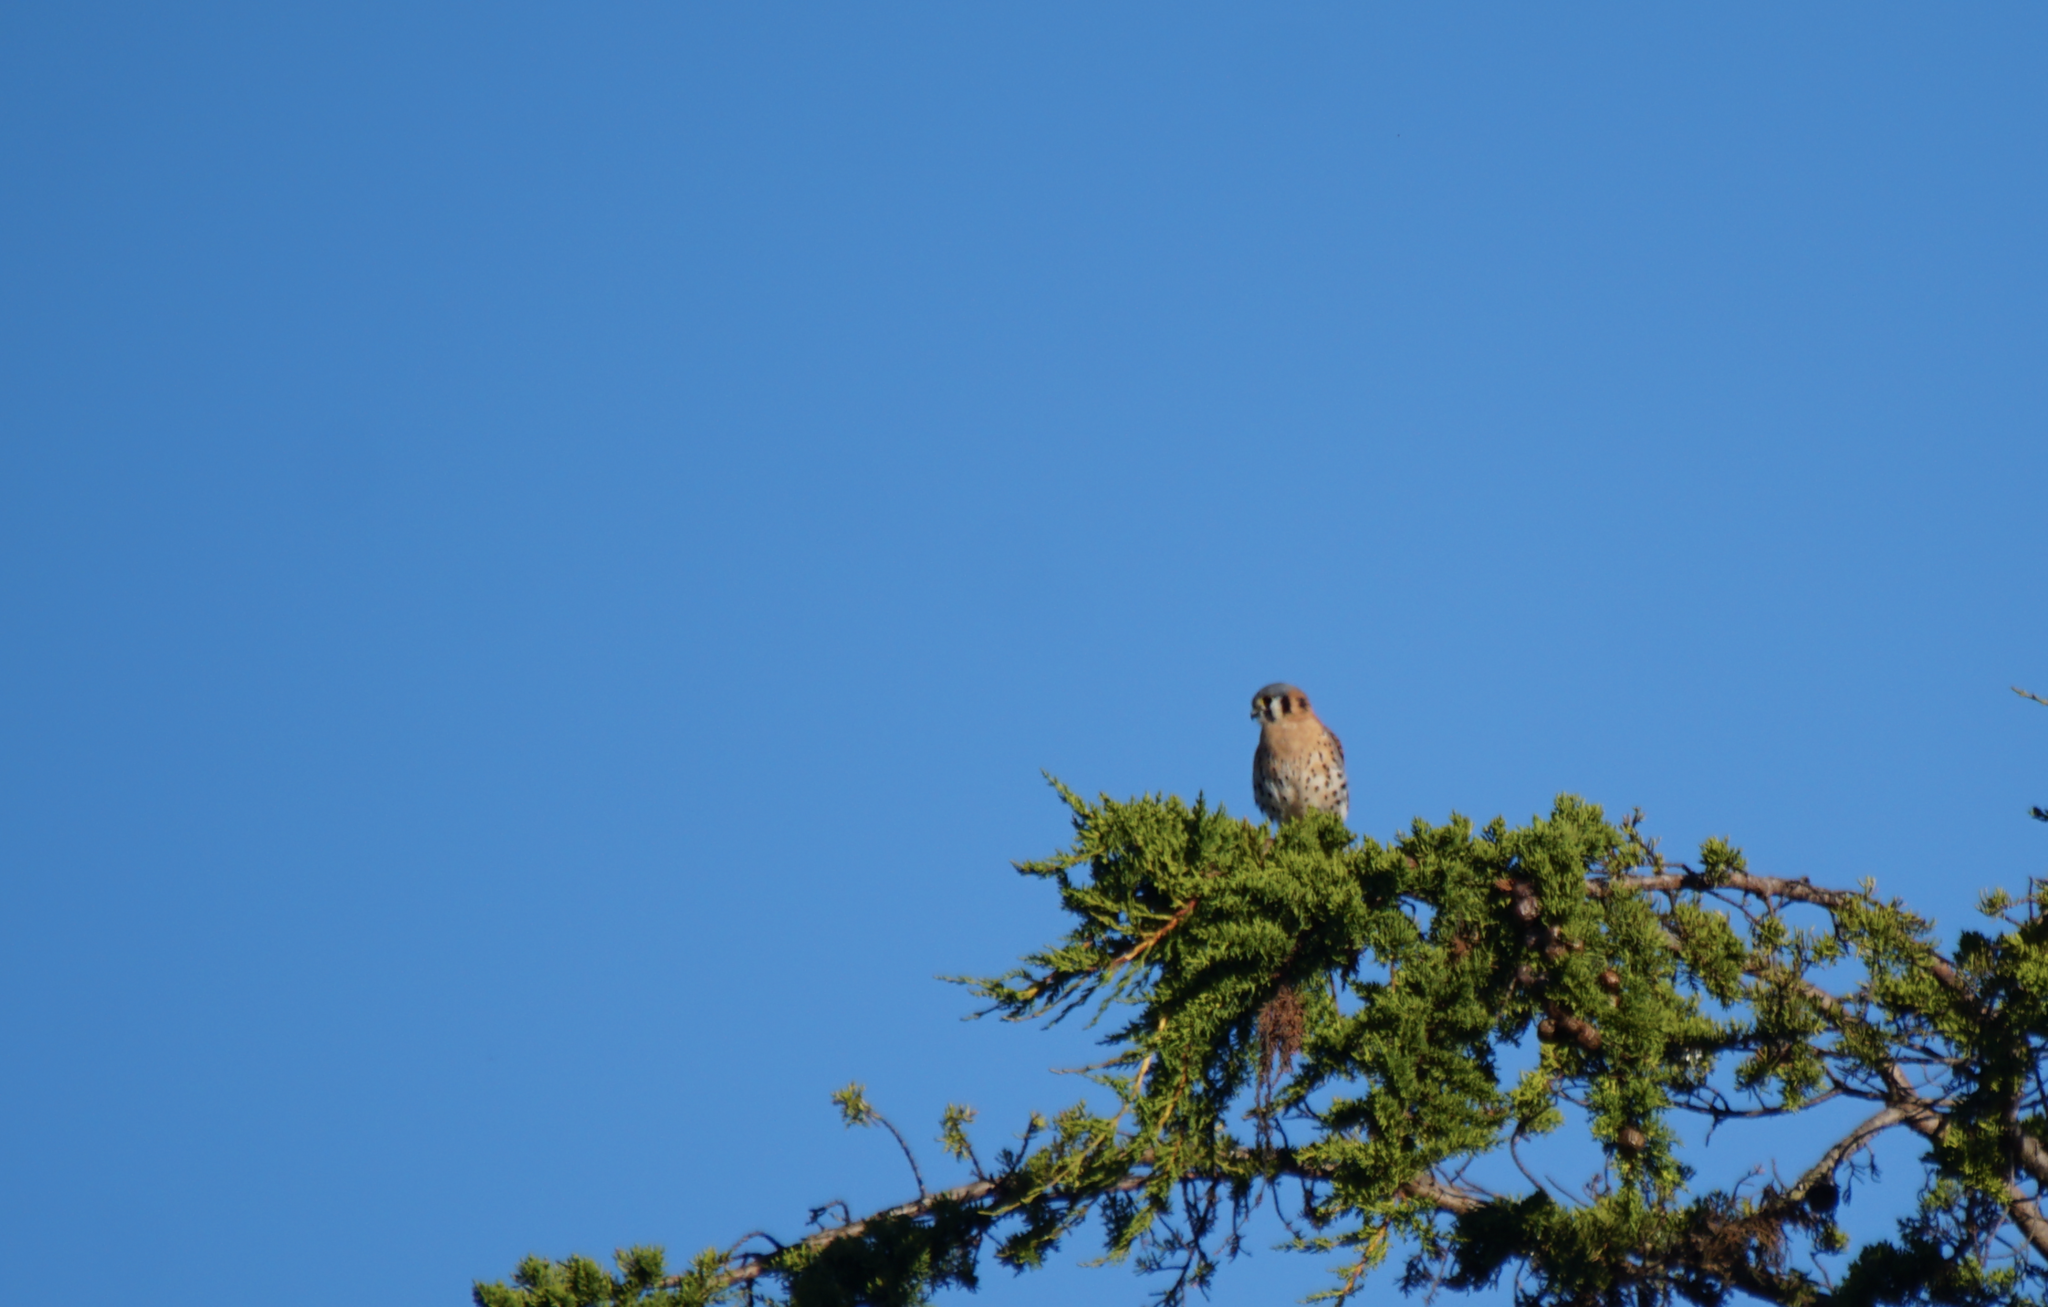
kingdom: Animalia
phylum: Chordata
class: Aves
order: Falconiformes
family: Falconidae
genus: Falco
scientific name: Falco sparverius
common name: American kestrel
